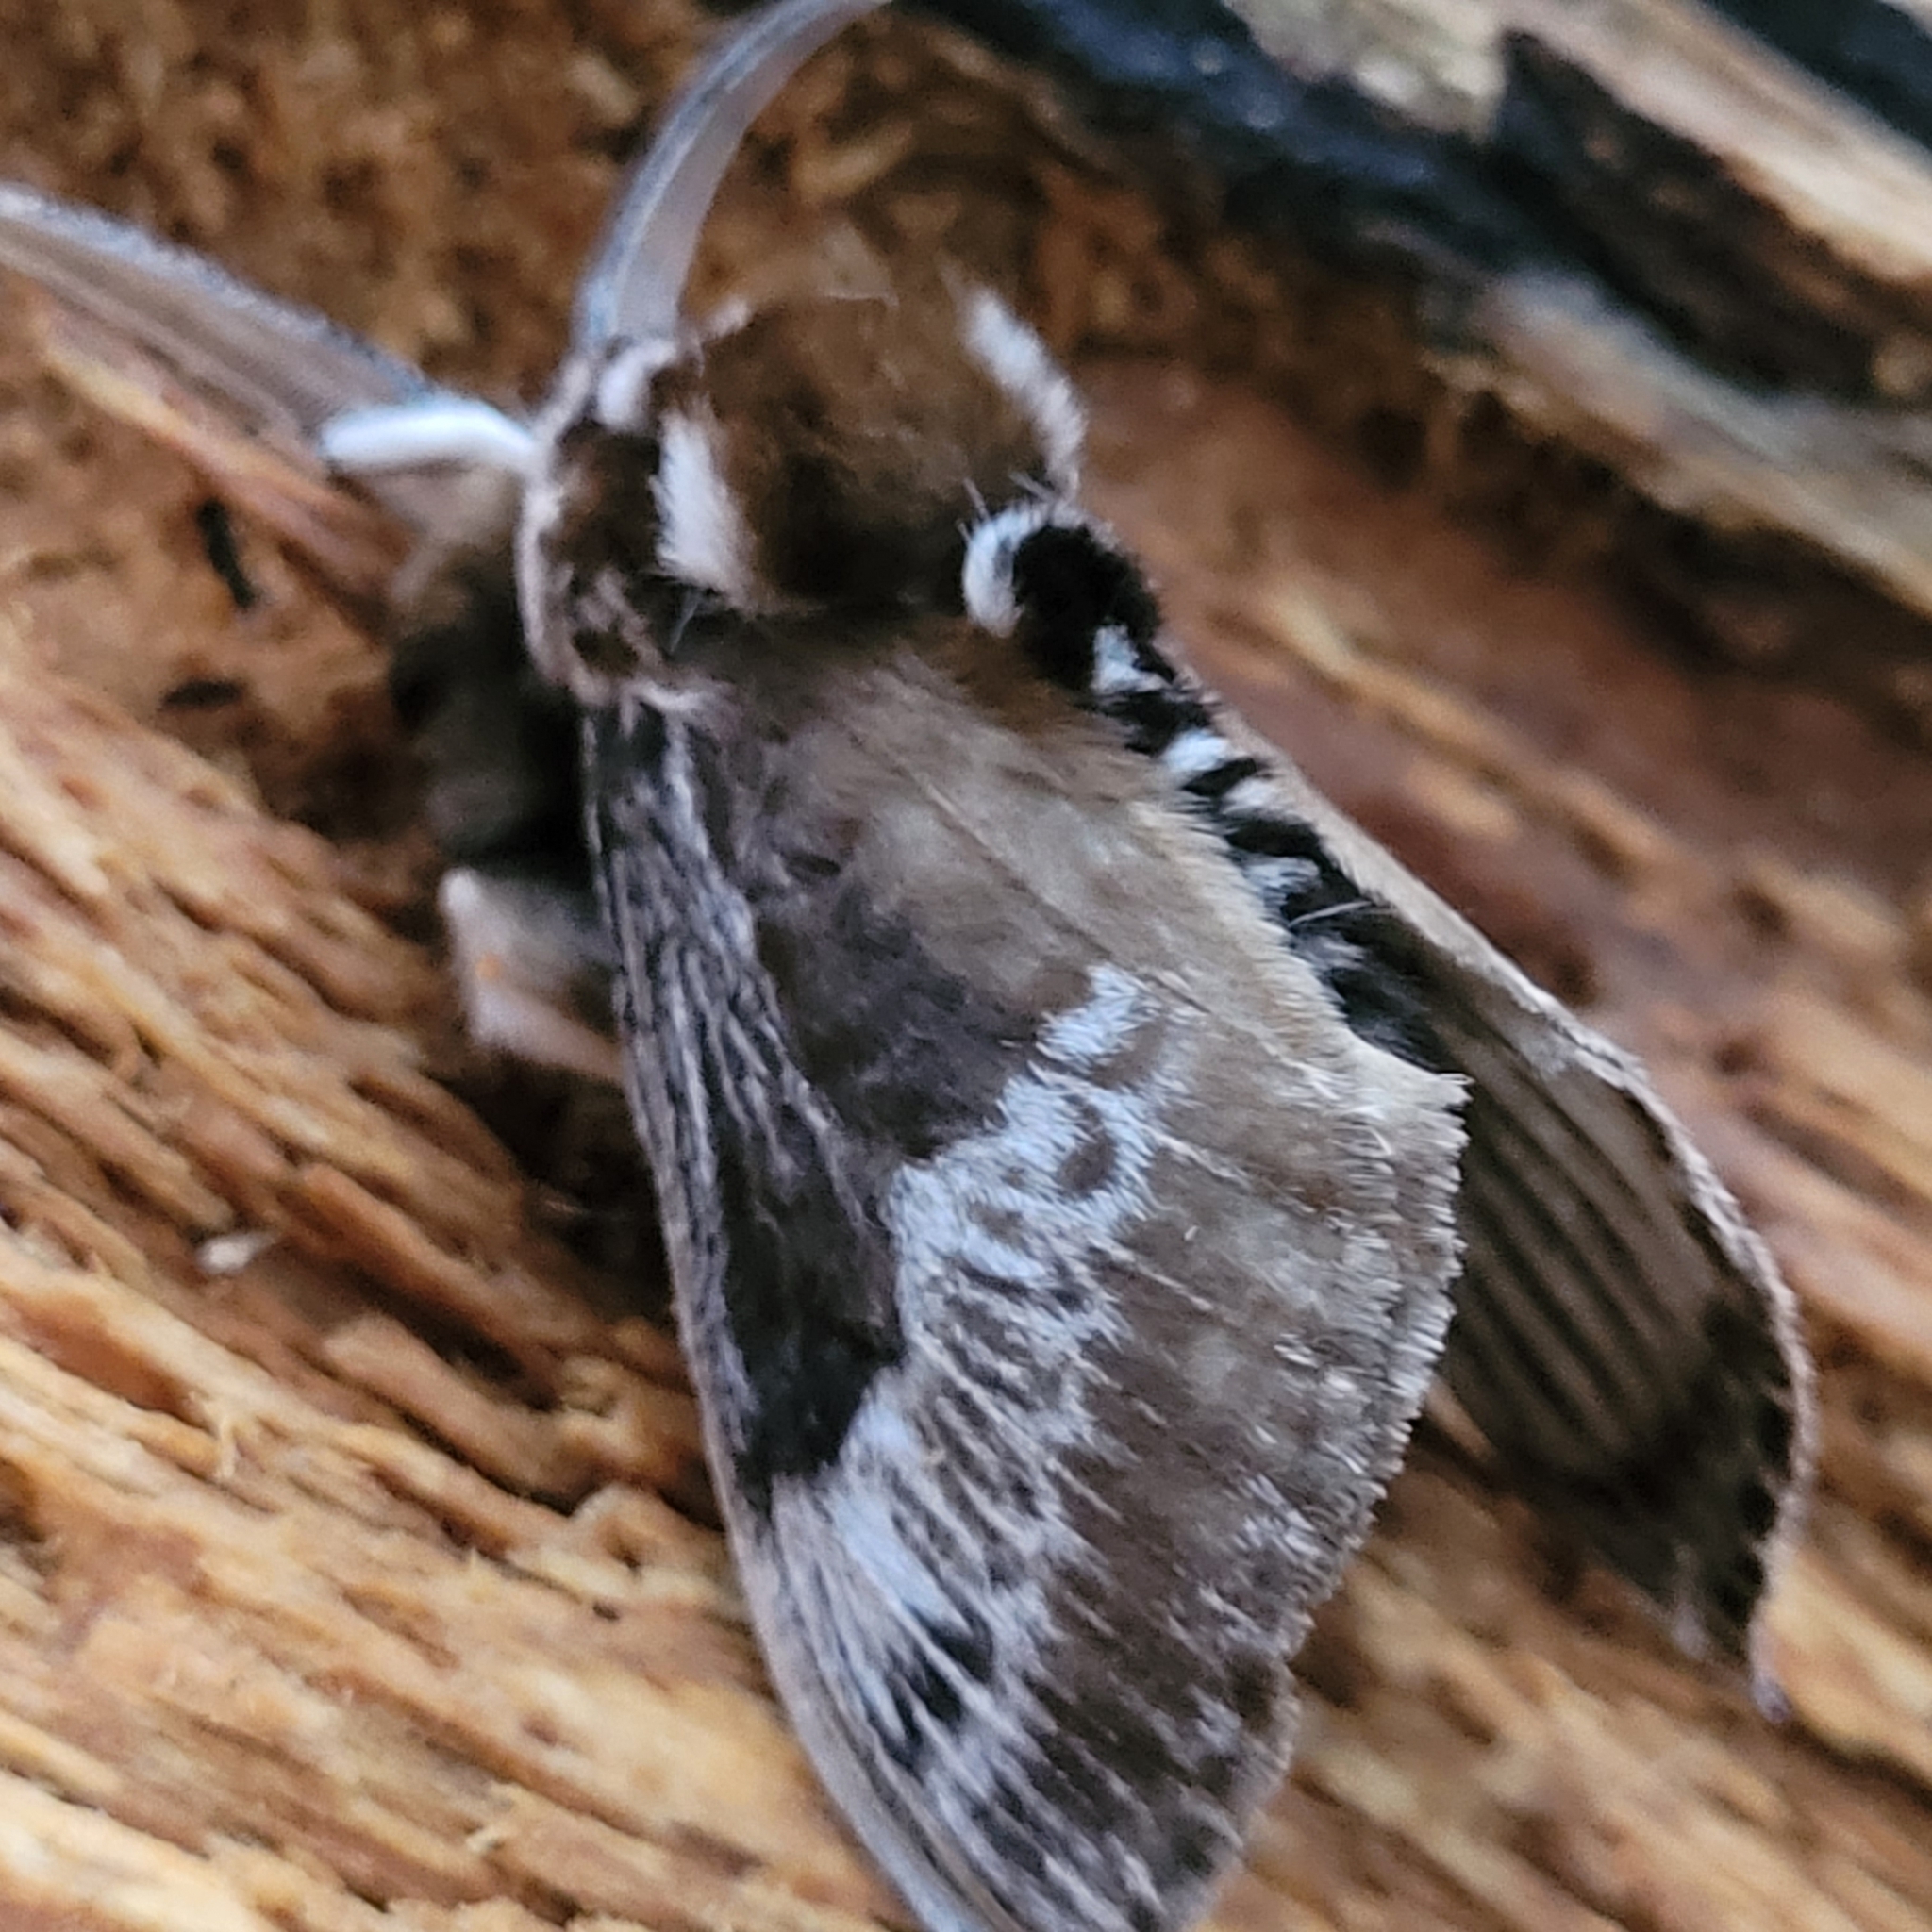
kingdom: Animalia
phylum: Arthropoda
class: Insecta
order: Lepidoptera
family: Megalopygidae
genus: Podalia
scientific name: Podalia walkeri
